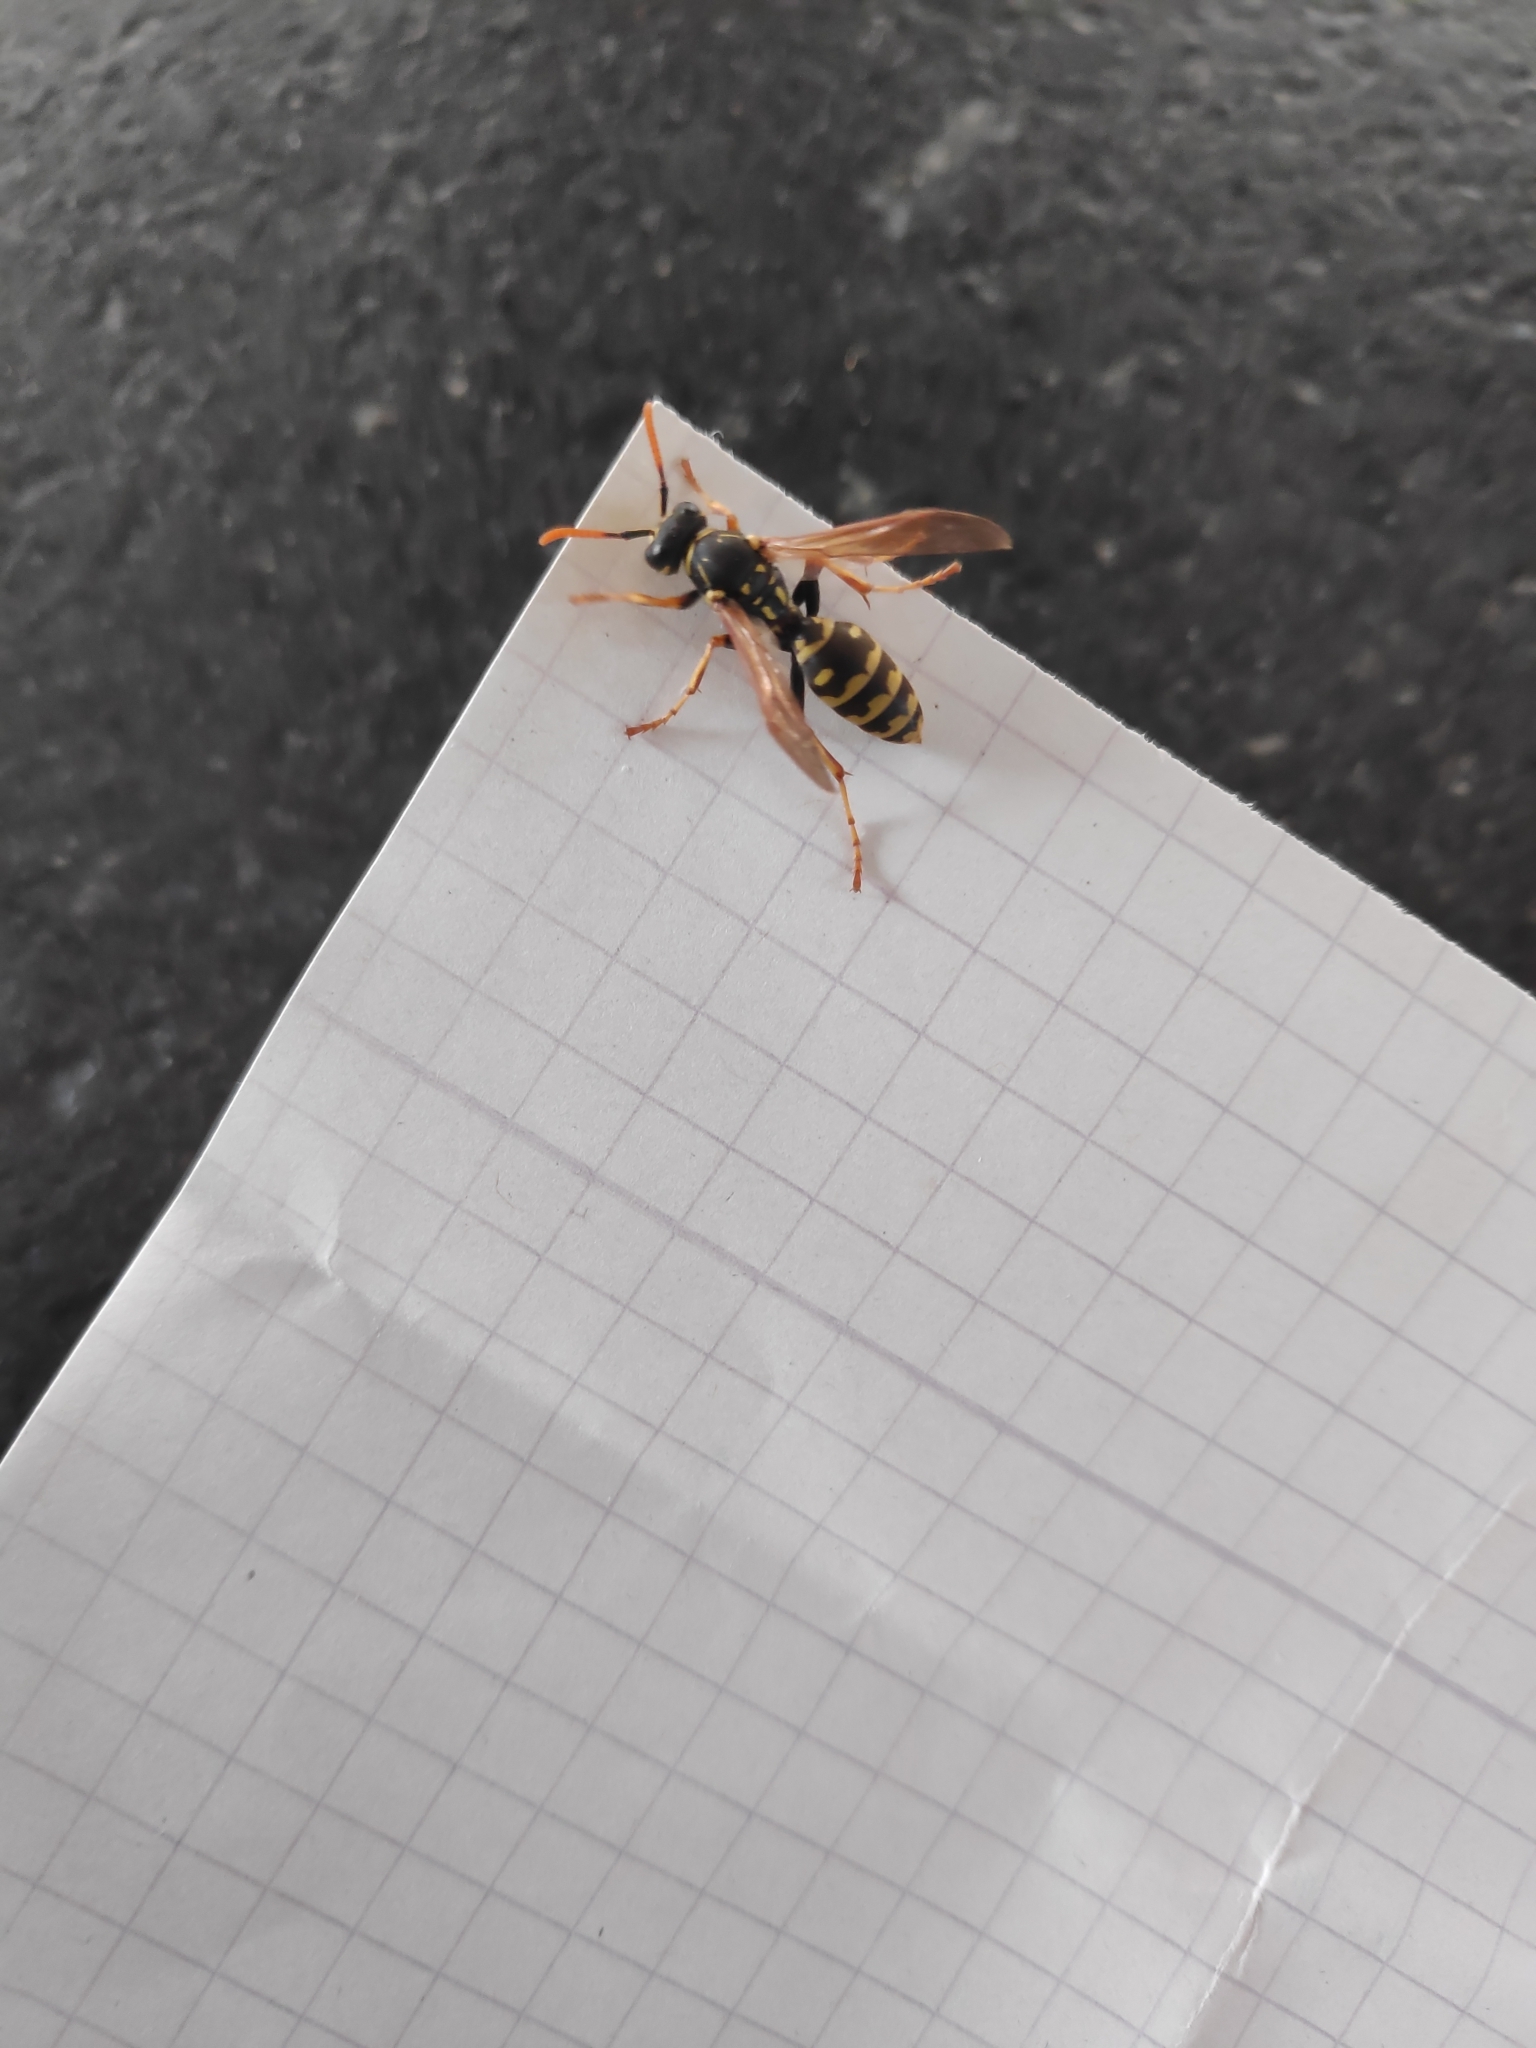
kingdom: Animalia
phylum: Arthropoda
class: Insecta
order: Hymenoptera
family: Eumenidae
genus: Polistes
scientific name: Polistes dominula
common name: Paper wasp
